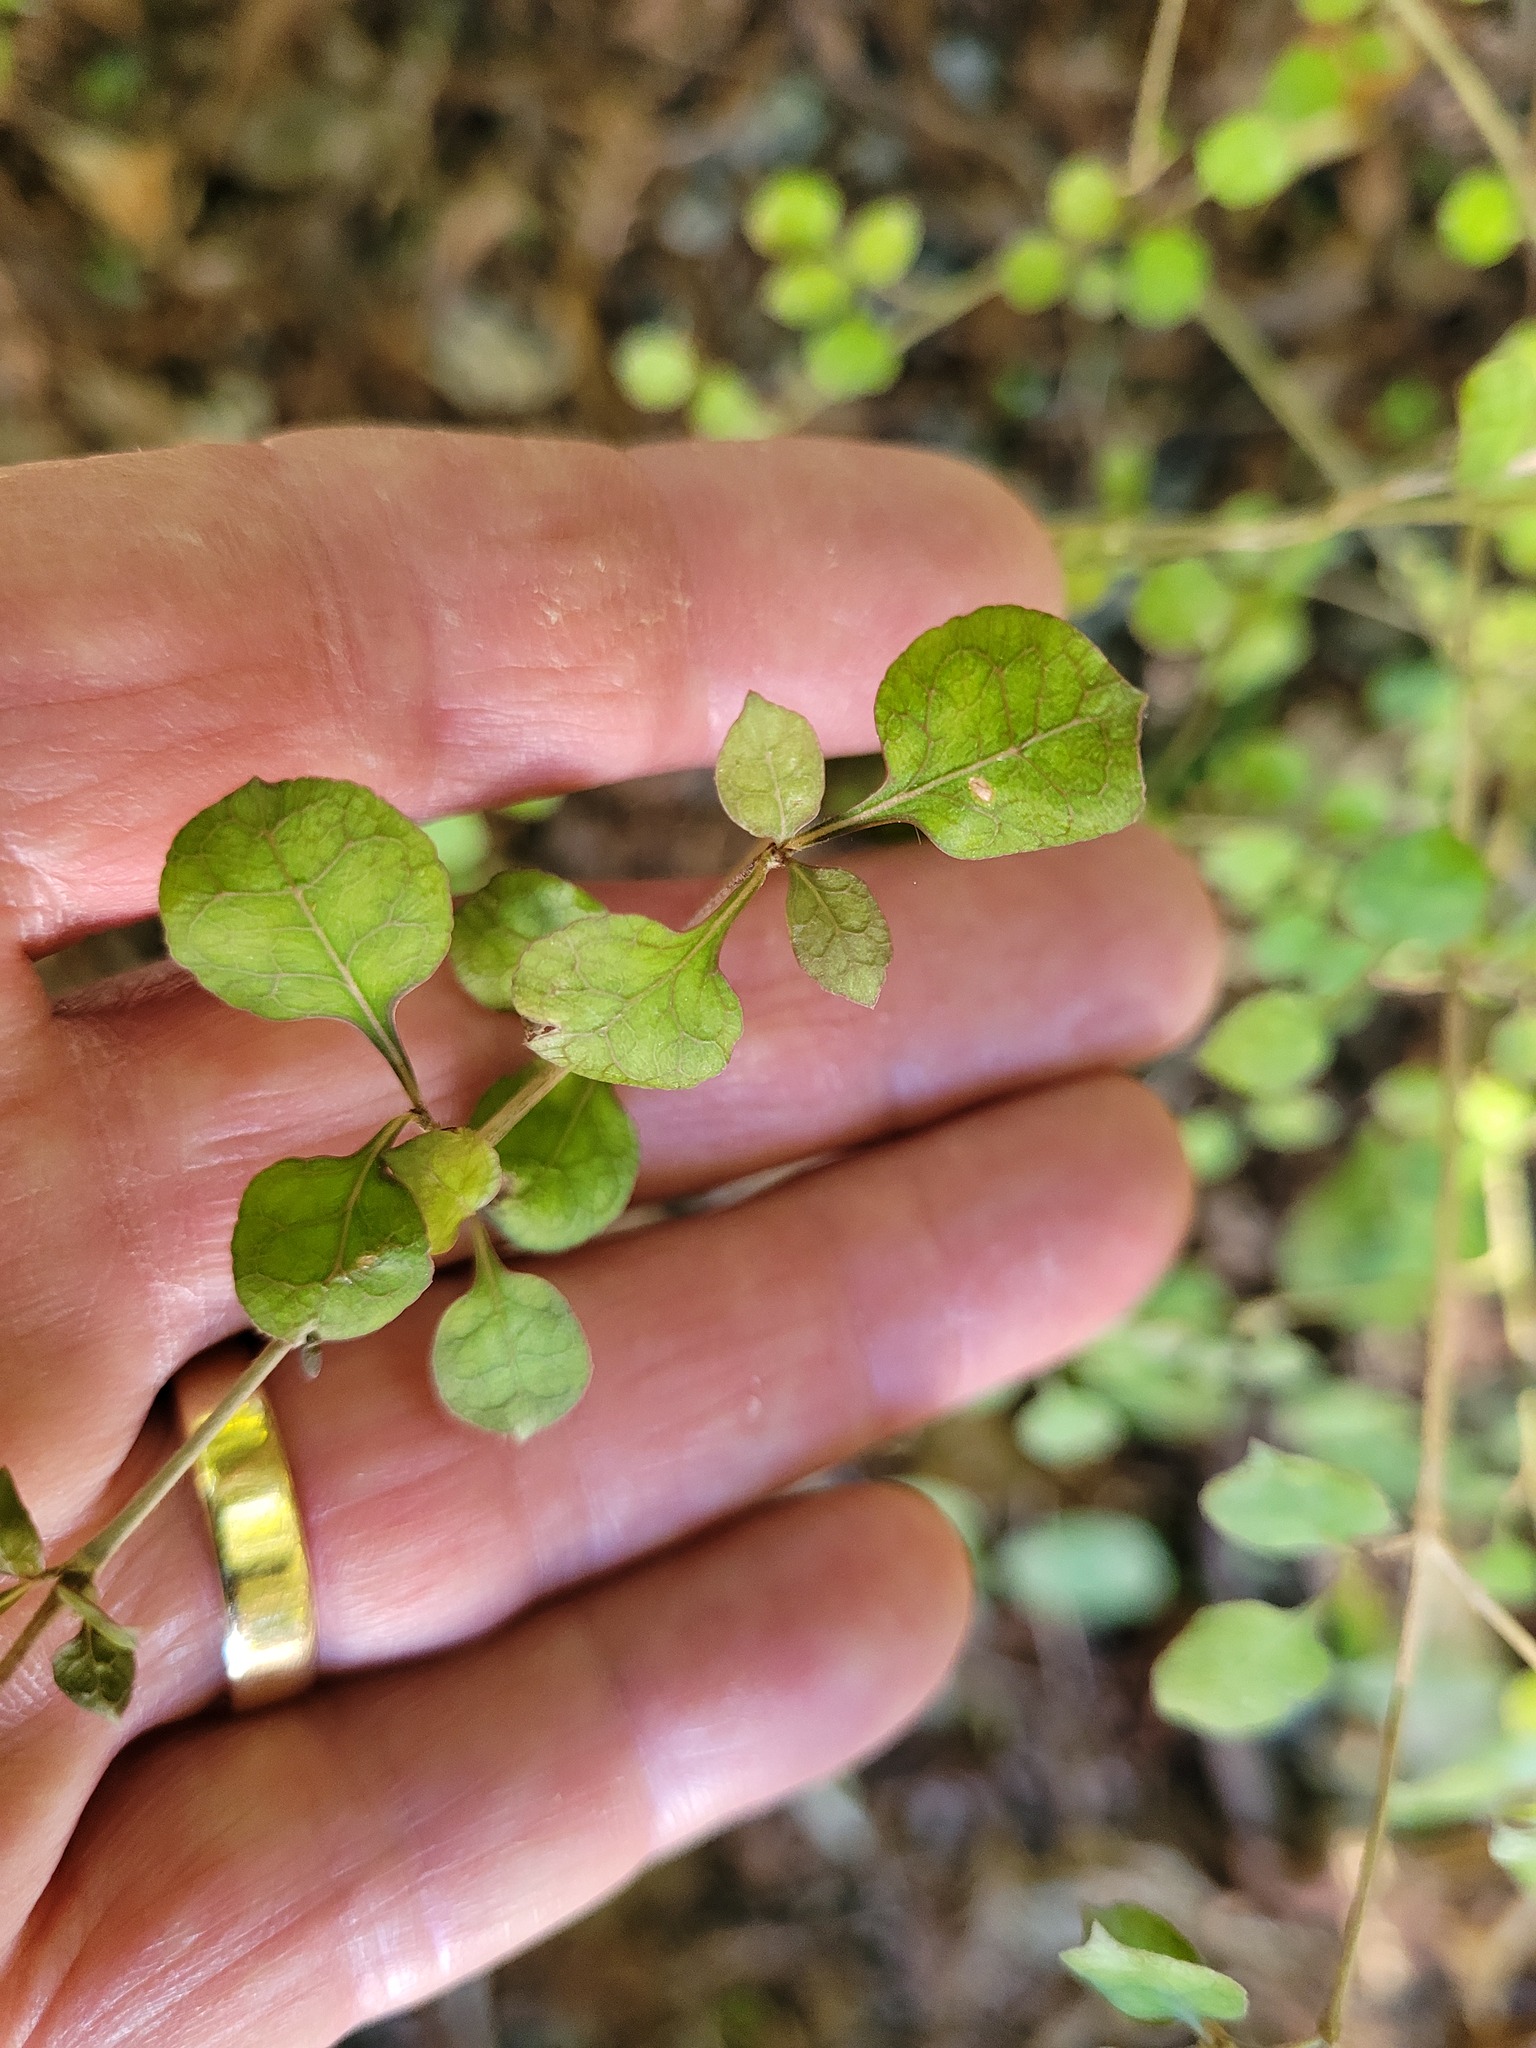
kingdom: Plantae
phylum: Tracheophyta
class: Magnoliopsida
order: Gentianales
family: Rubiaceae
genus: Coprosma
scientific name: Coprosma areolata
